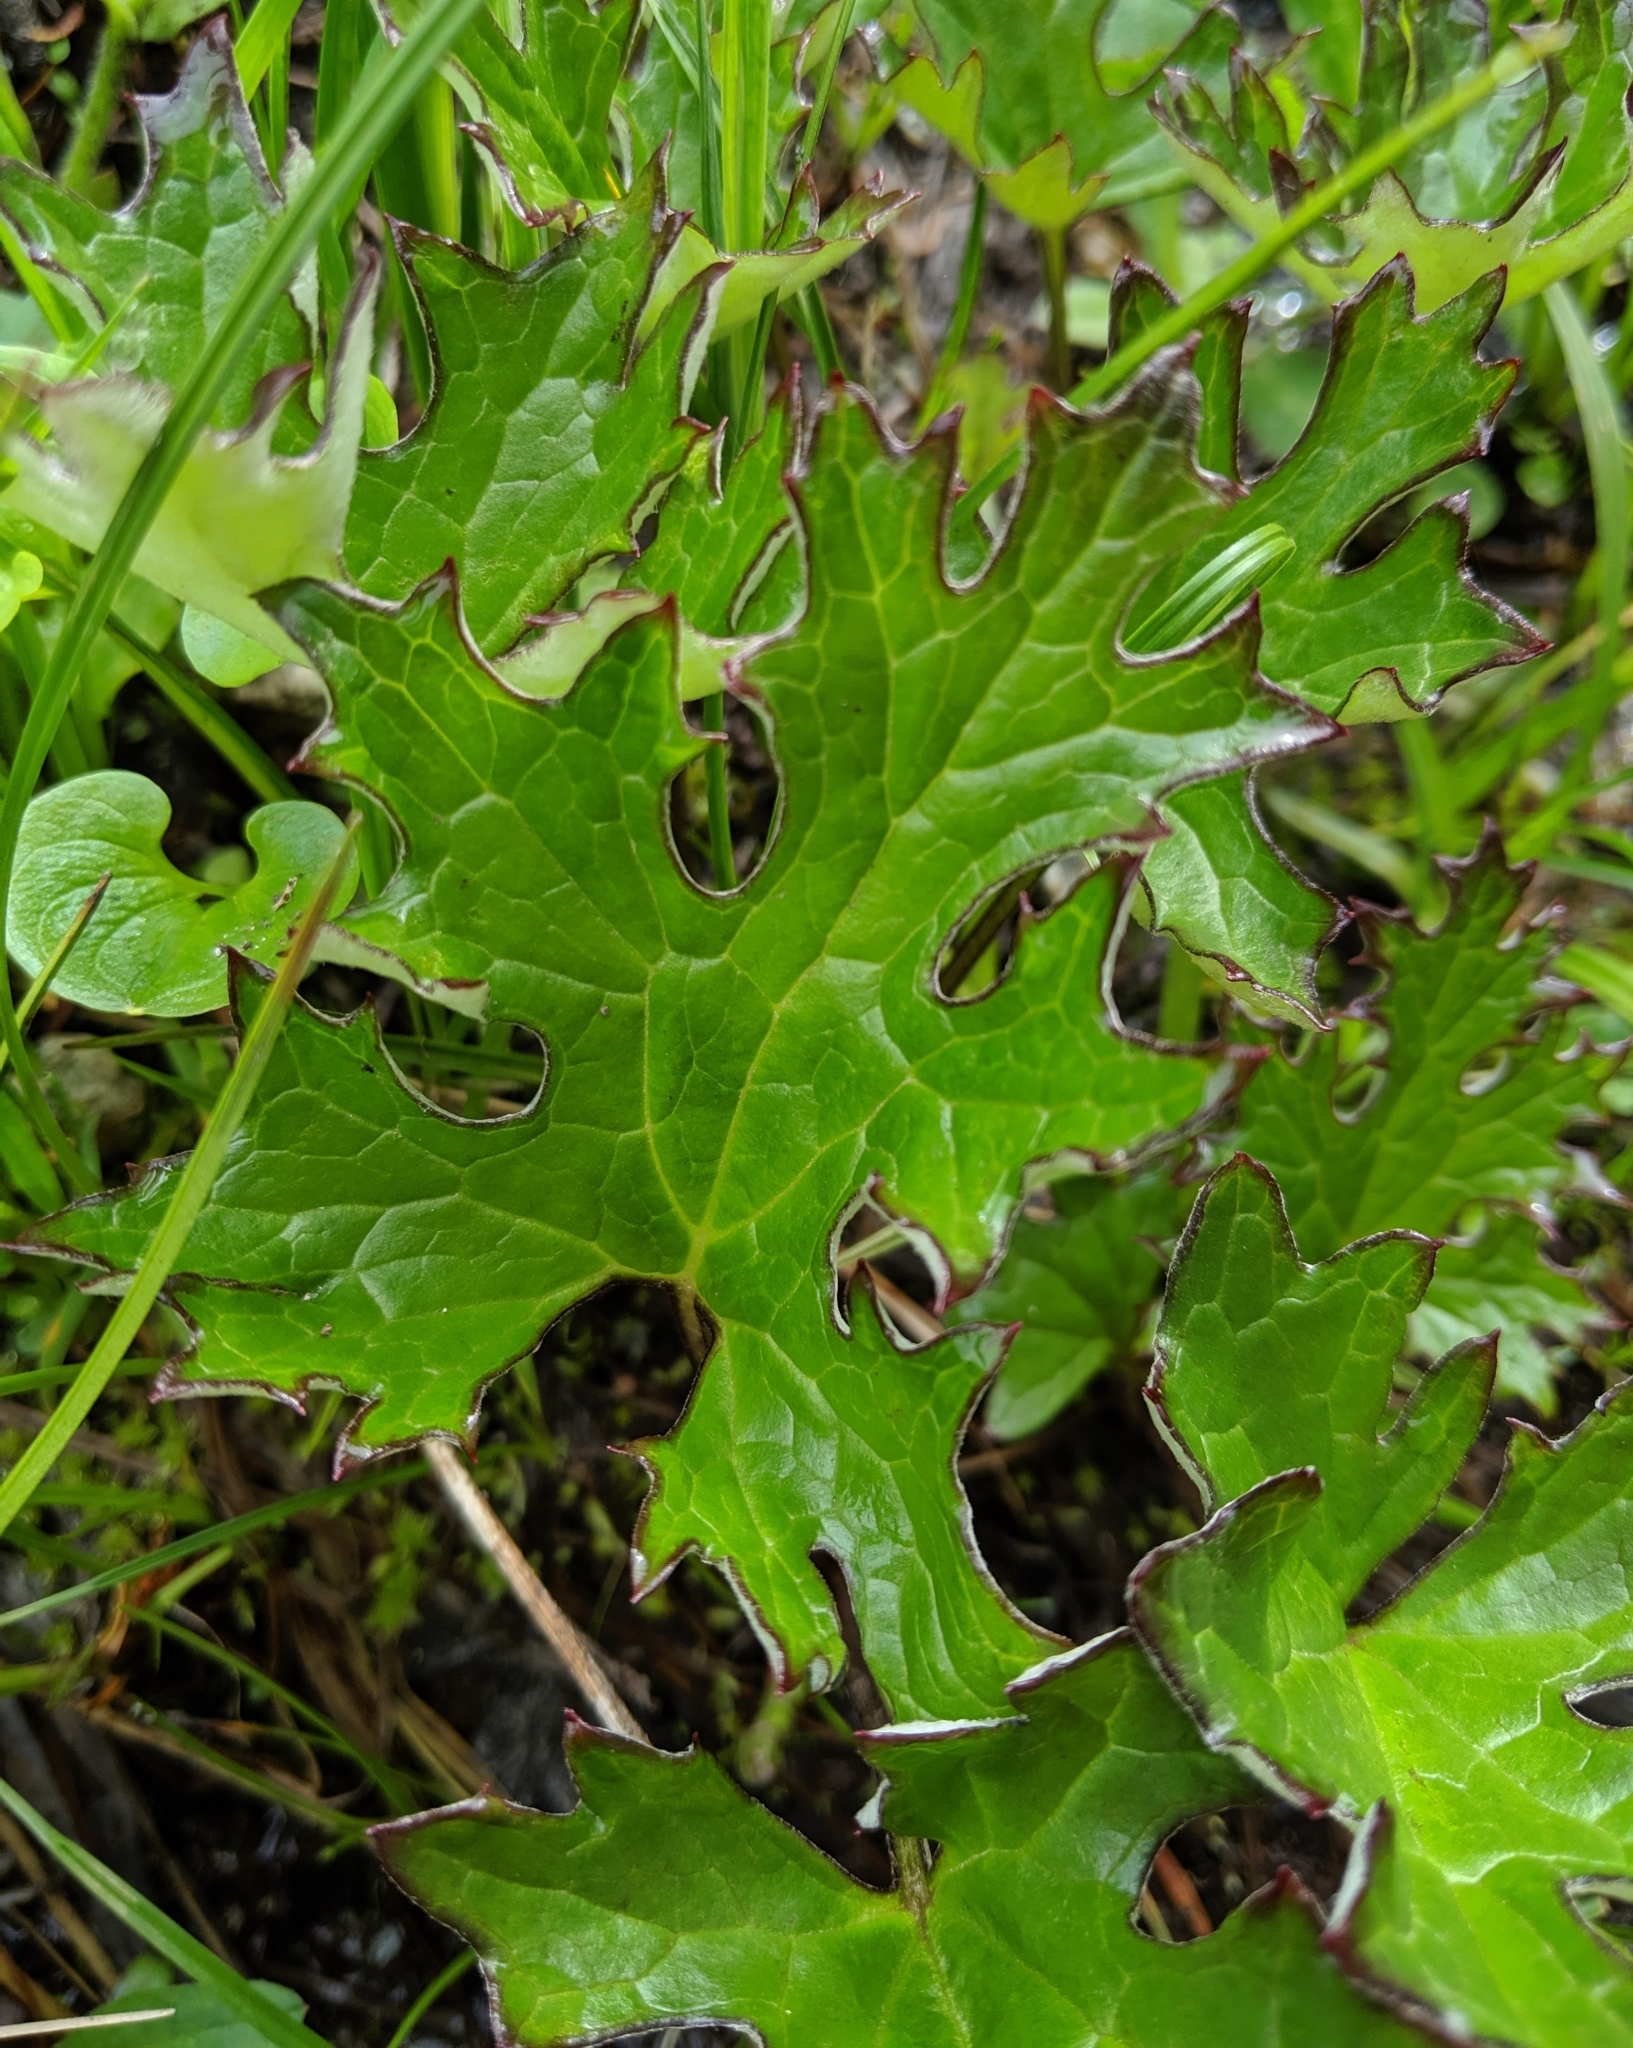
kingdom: Plantae
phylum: Tracheophyta
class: Magnoliopsida
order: Asterales
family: Asteraceae
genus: Petasites
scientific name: Petasites frigidus
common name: Arctic butterbur
